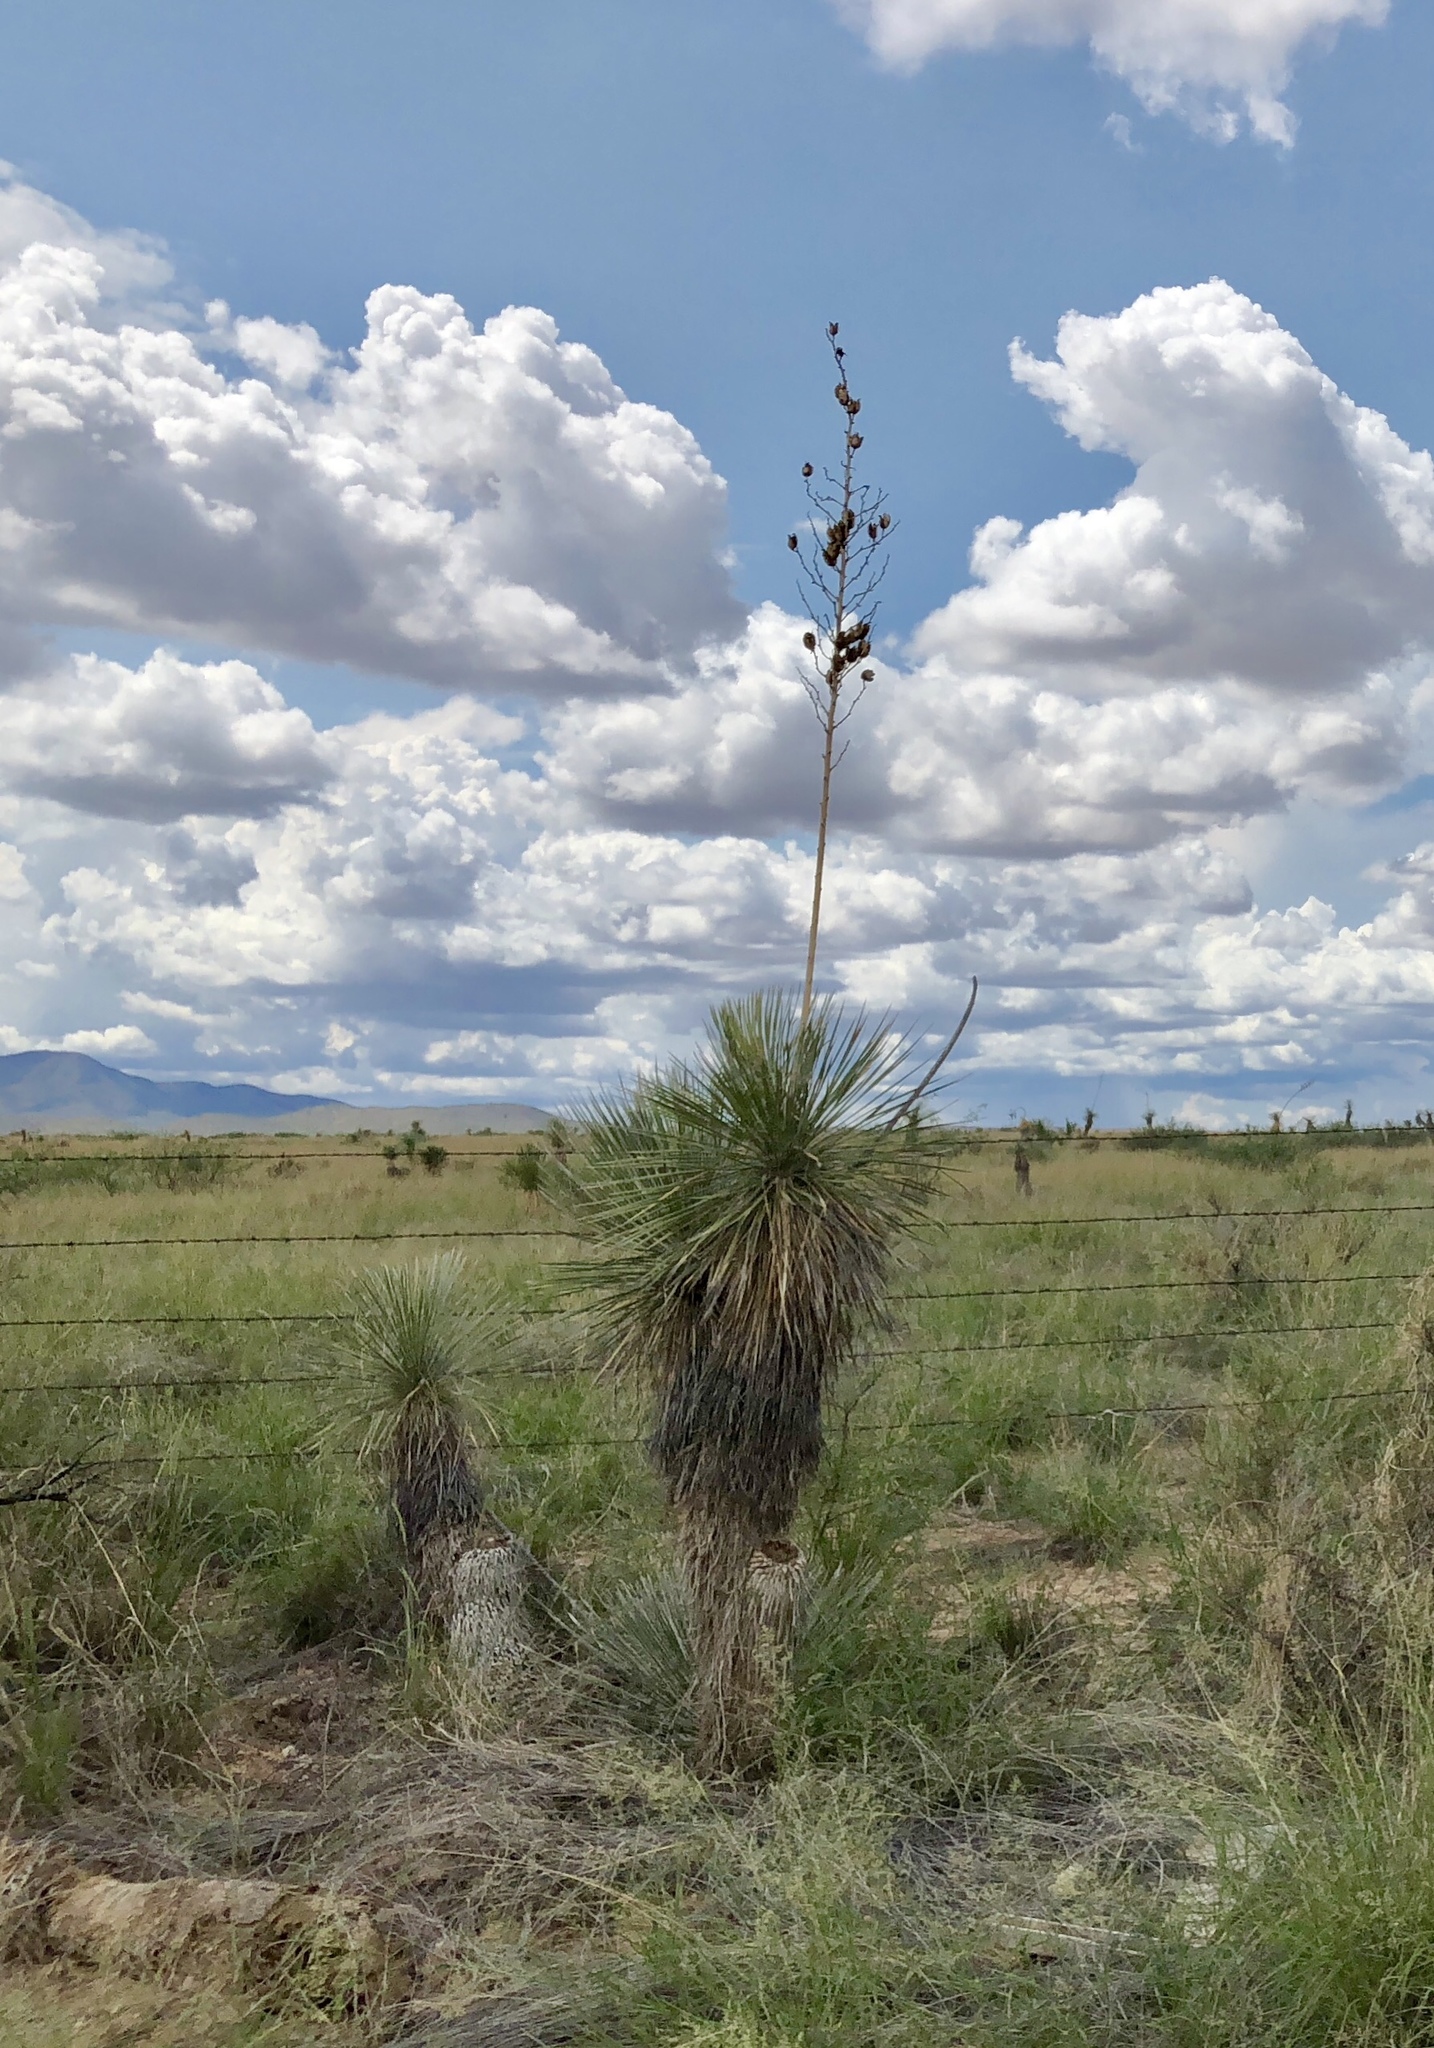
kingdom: Plantae
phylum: Tracheophyta
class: Liliopsida
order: Asparagales
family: Asparagaceae
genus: Yucca
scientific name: Yucca elata
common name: Palmella
